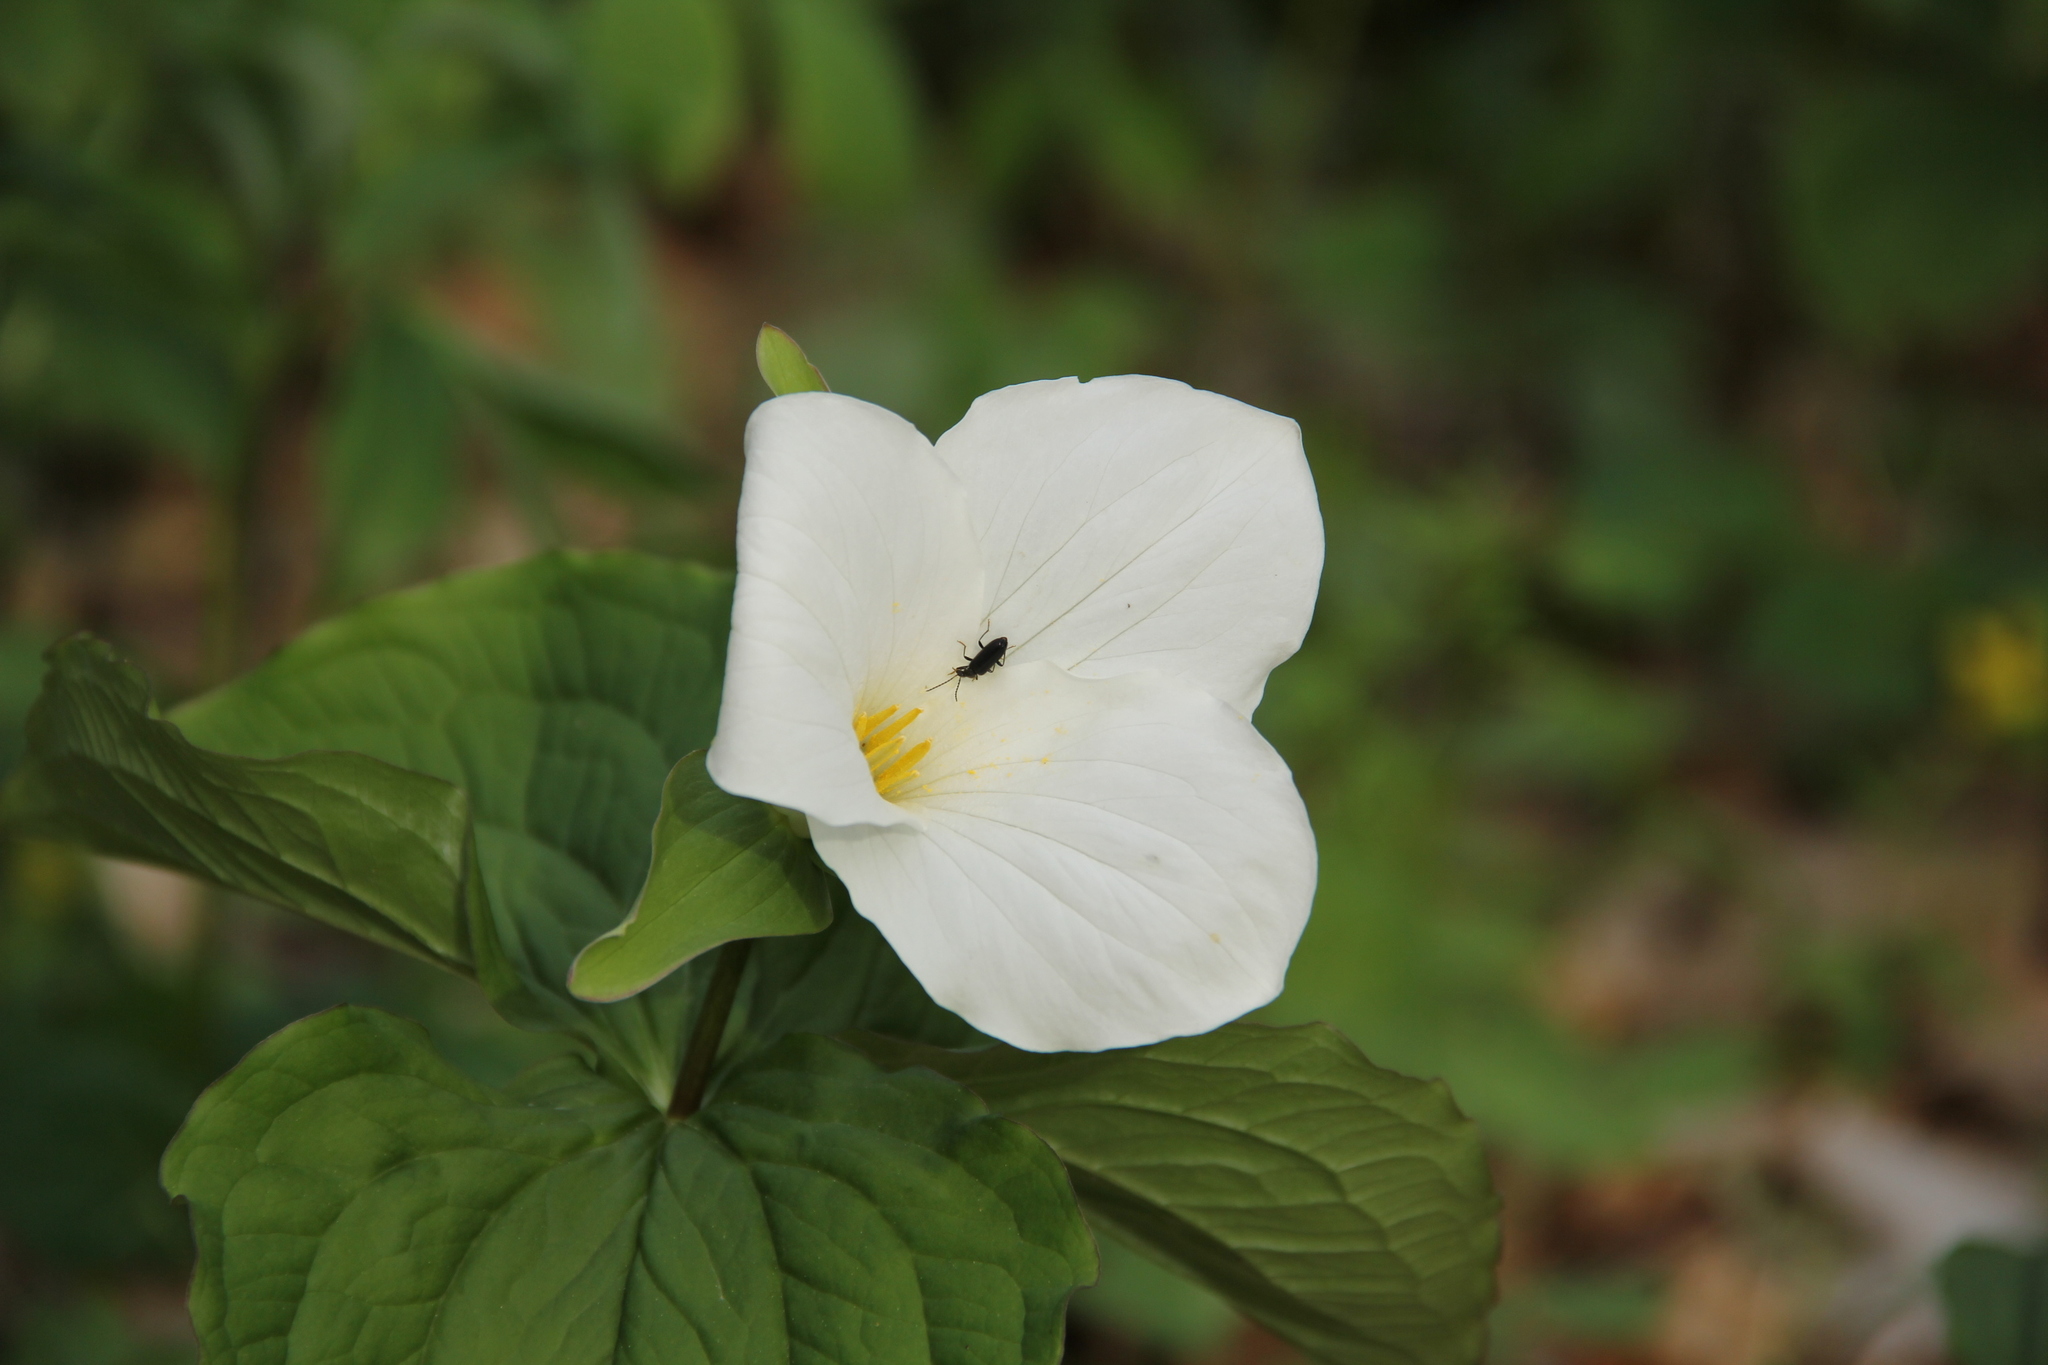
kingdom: Plantae
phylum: Tracheophyta
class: Liliopsida
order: Liliales
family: Melanthiaceae
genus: Trillium
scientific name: Trillium grandiflorum
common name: Great white trillium
